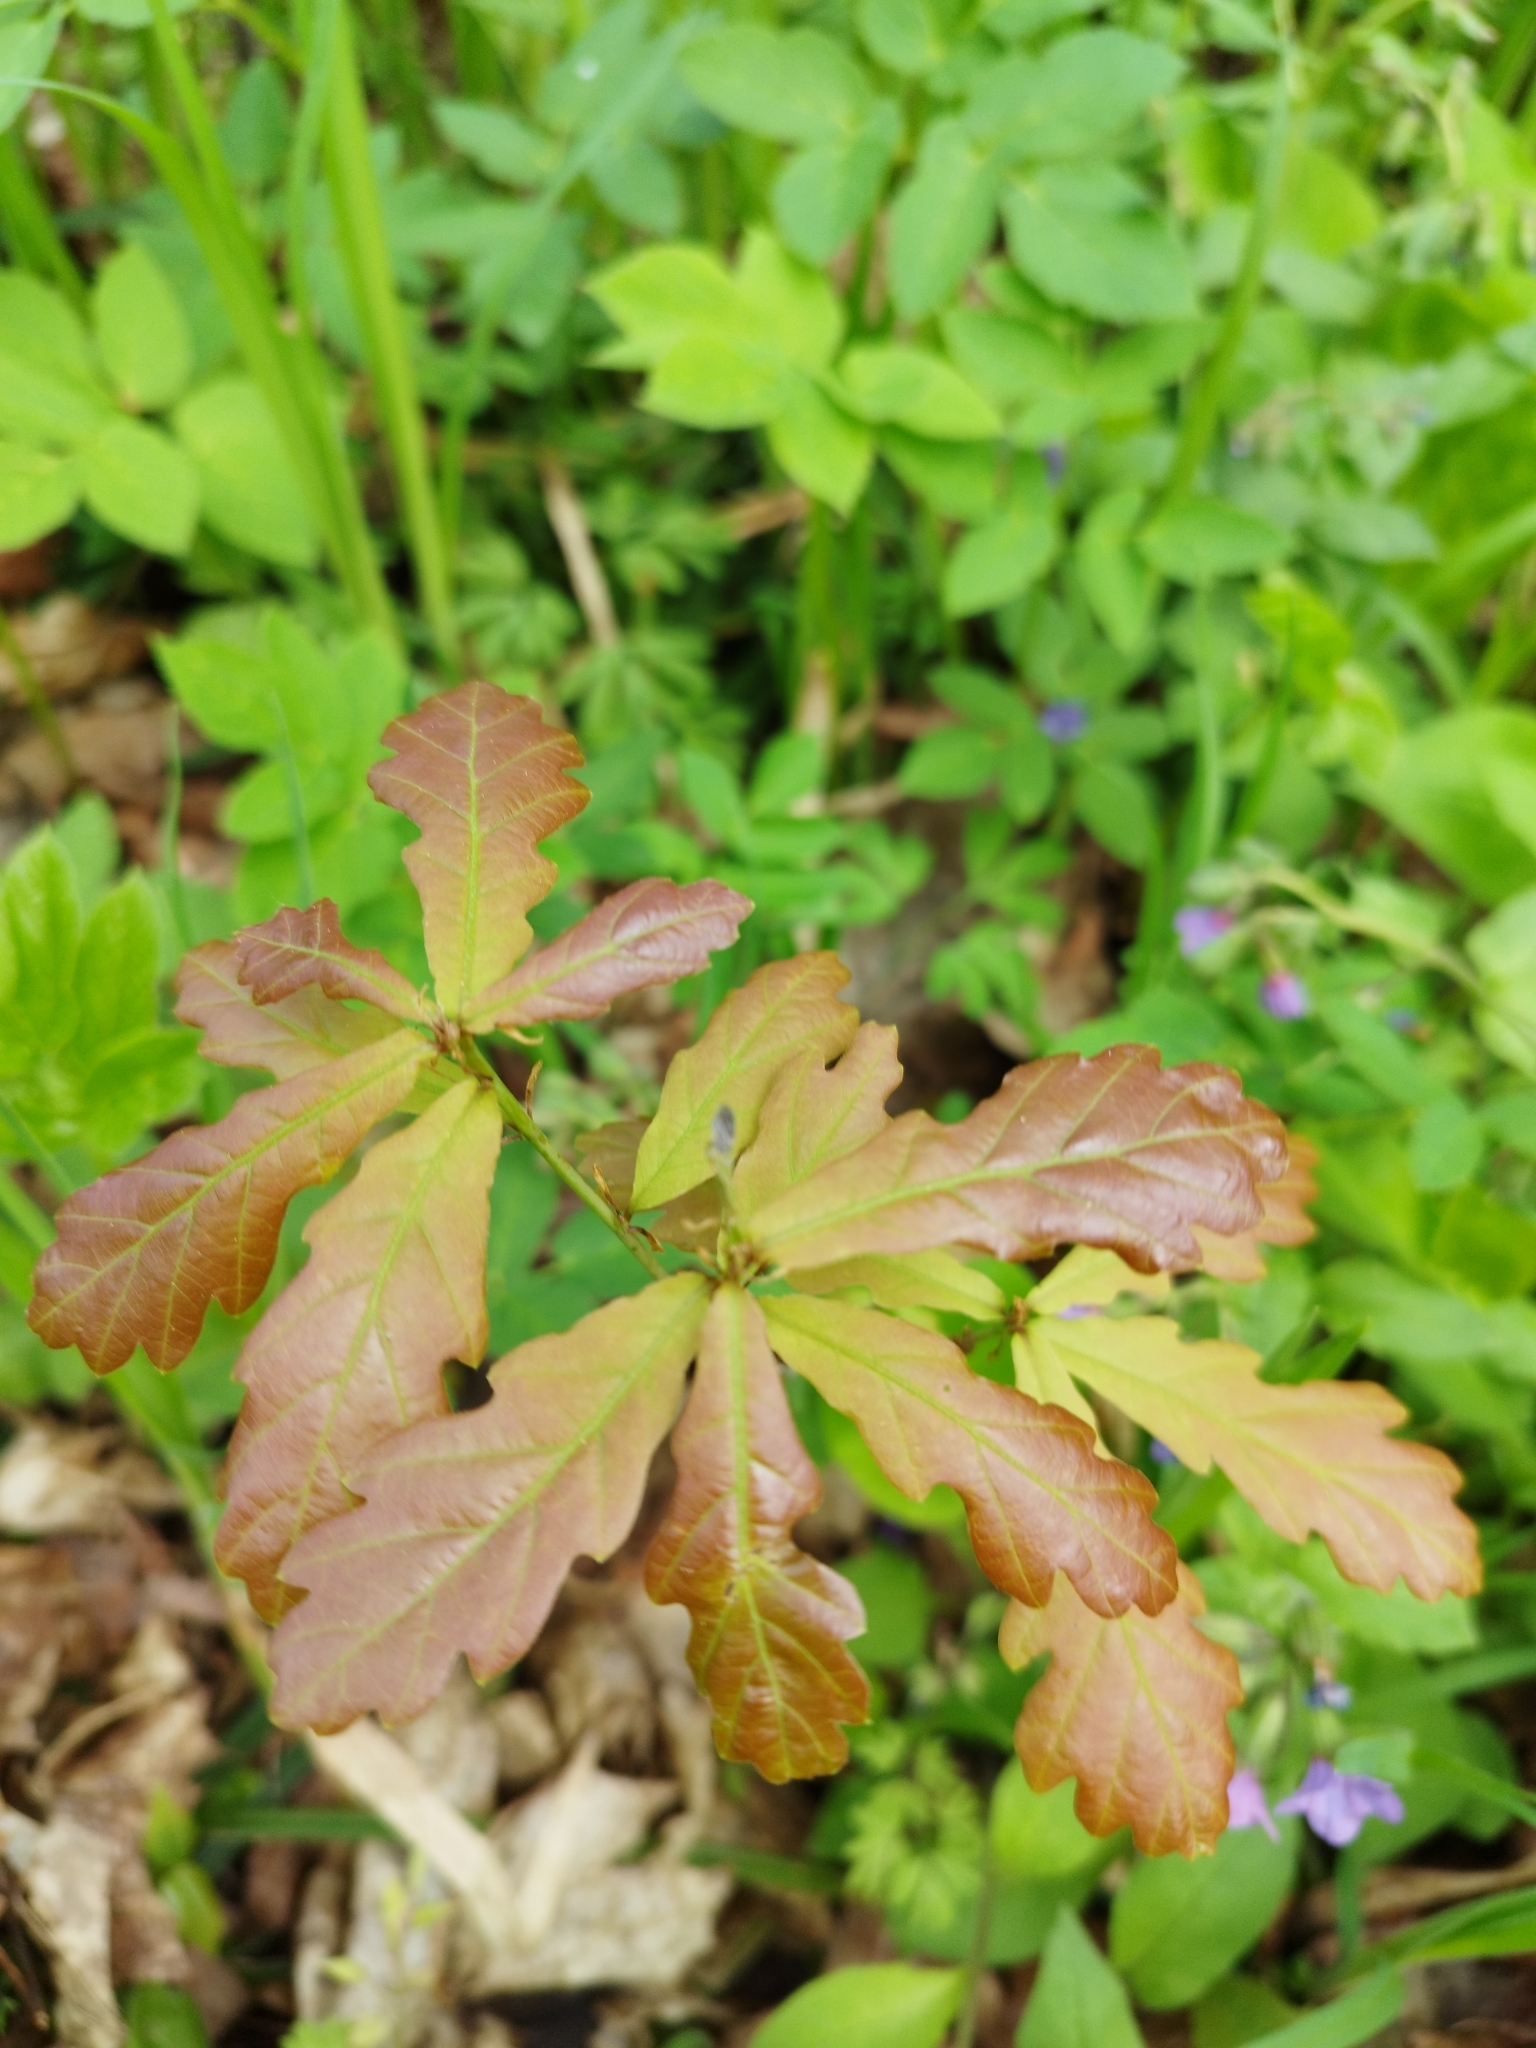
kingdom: Plantae
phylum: Tracheophyta
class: Magnoliopsida
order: Fagales
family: Fagaceae
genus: Quercus
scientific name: Quercus robur
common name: Pedunculate oak
